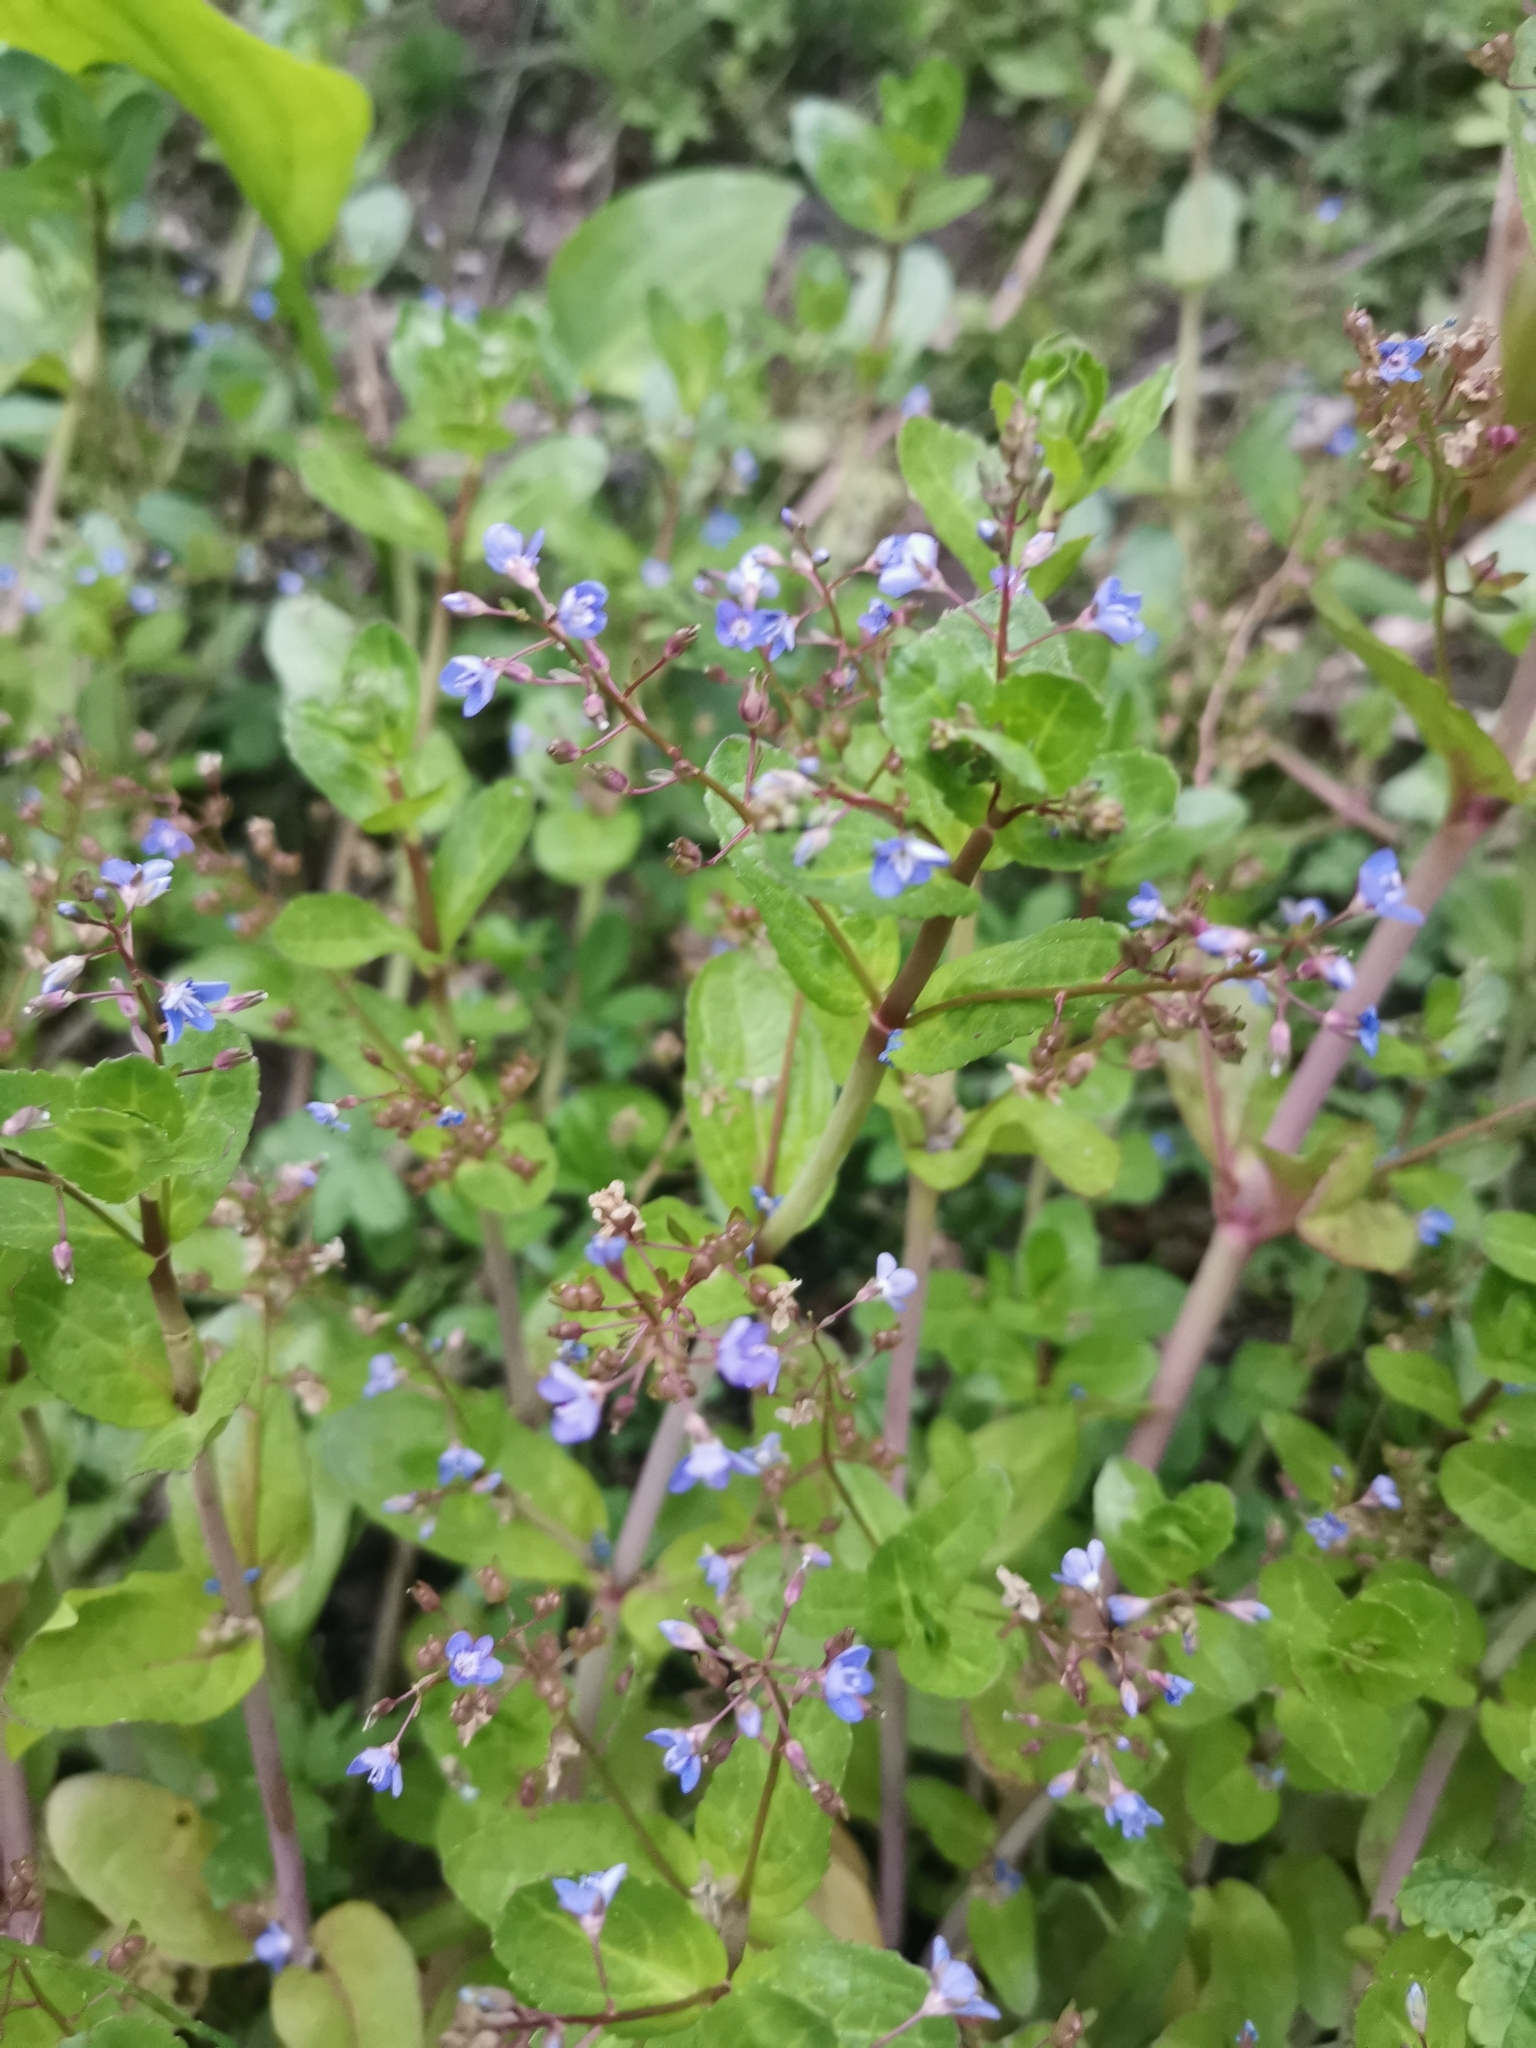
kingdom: Plantae
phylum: Tracheophyta
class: Magnoliopsida
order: Lamiales
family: Plantaginaceae
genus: Veronica
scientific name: Veronica beccabunga
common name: Brooklime
